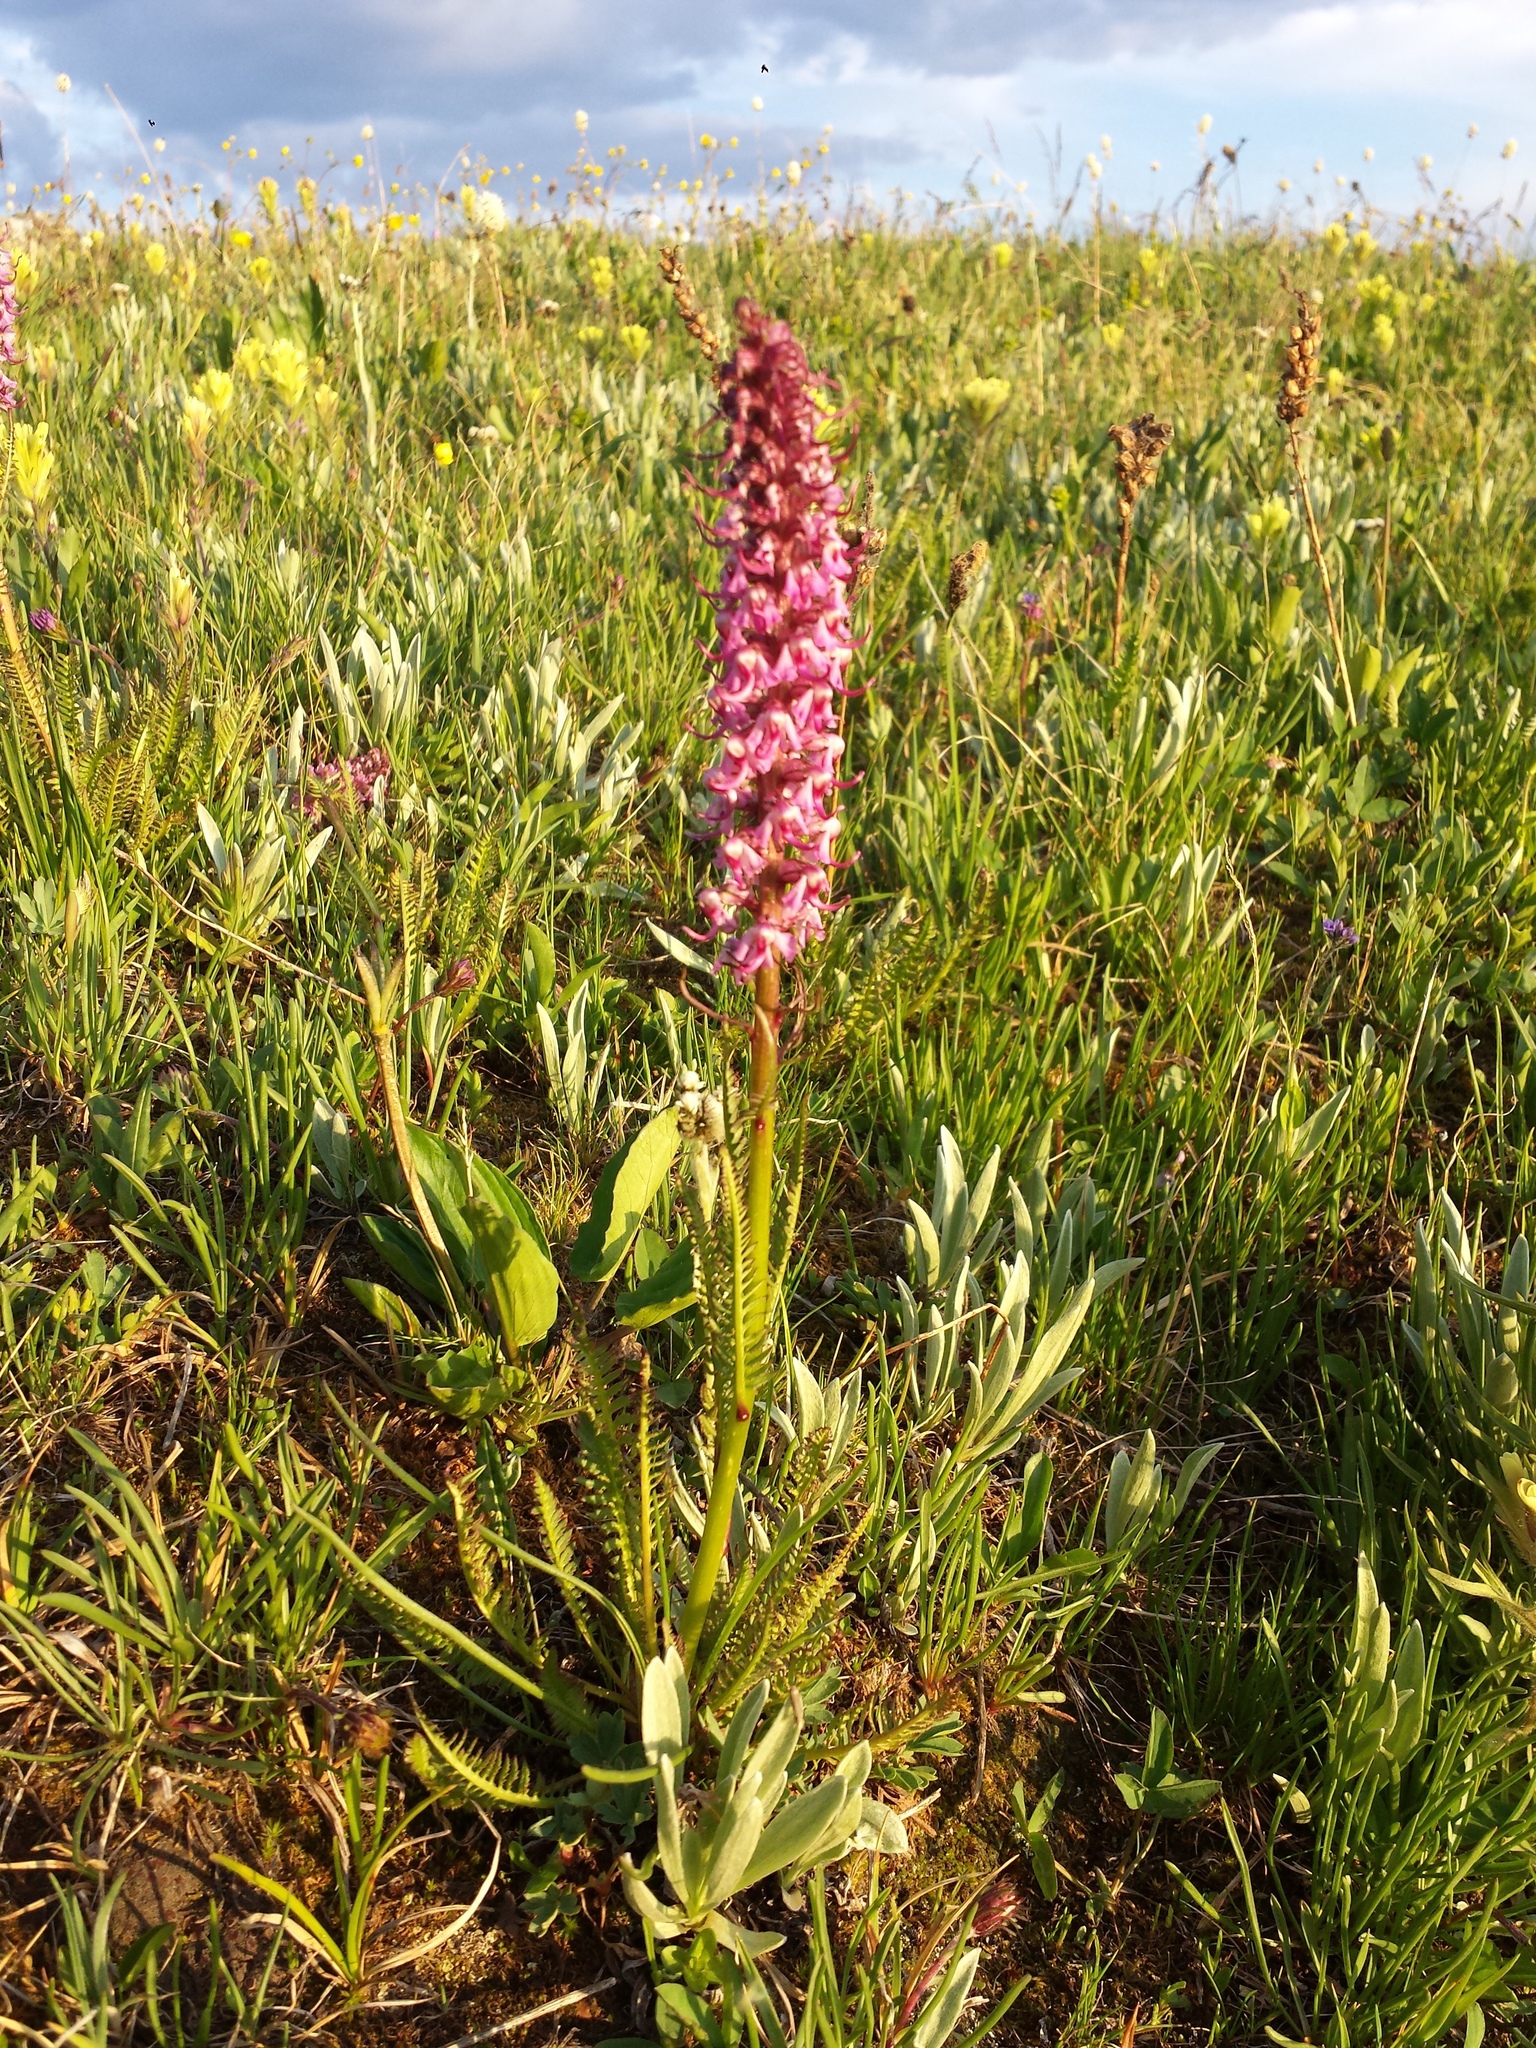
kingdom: Plantae
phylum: Tracheophyta
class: Magnoliopsida
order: Lamiales
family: Orobanchaceae
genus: Pedicularis
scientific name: Pedicularis groenlandica
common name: Elephant's-head
